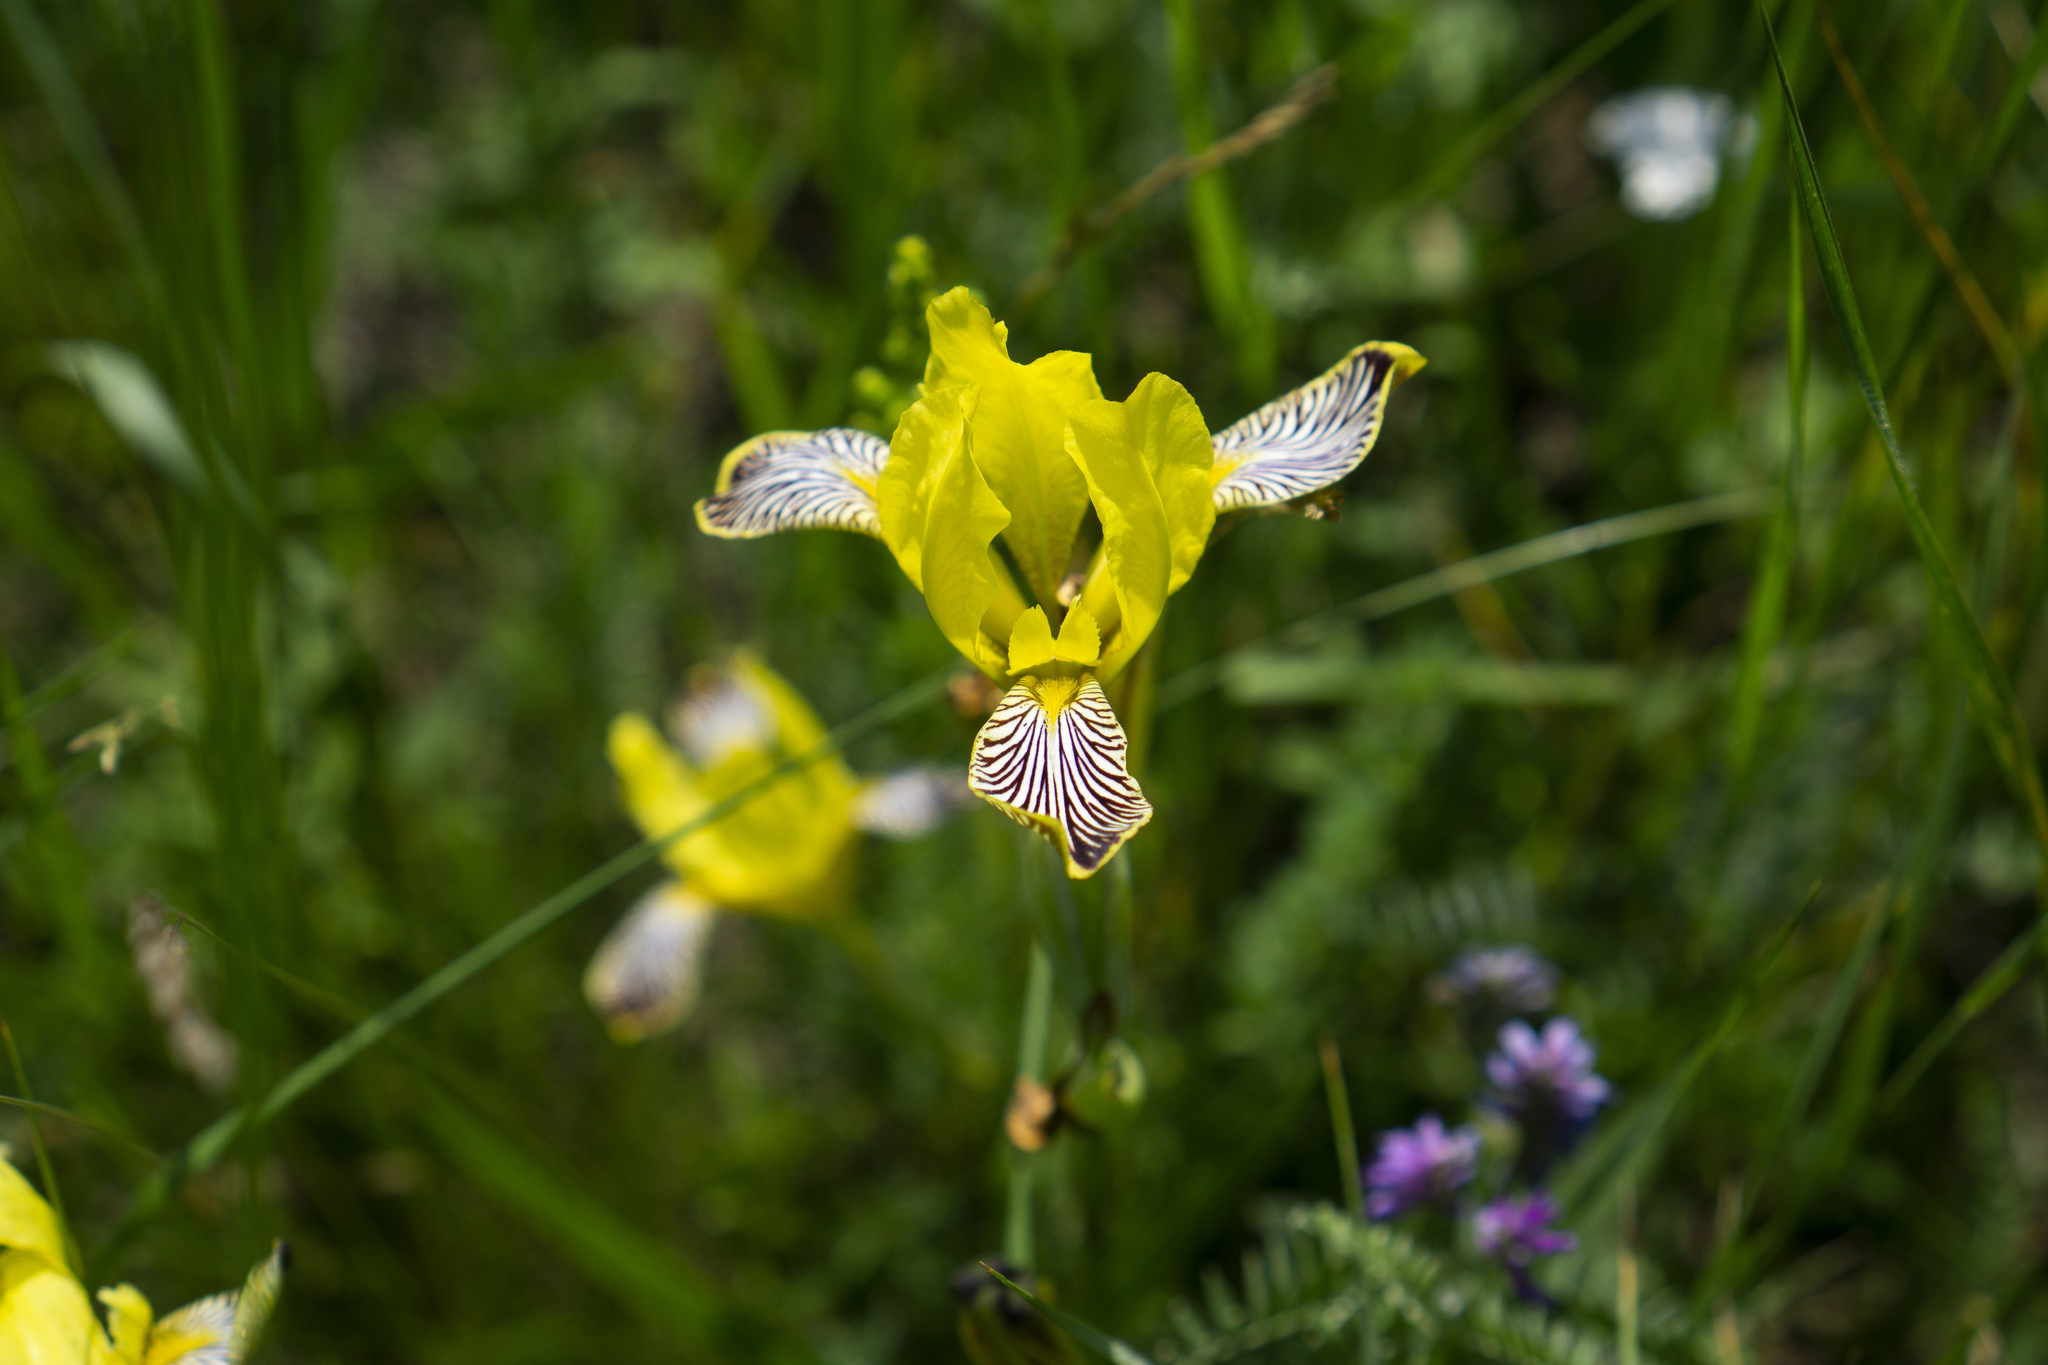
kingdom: Plantae
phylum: Tracheophyta
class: Liliopsida
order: Asparagales
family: Iridaceae
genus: Iris
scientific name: Iris variegata
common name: Hungarian iris
